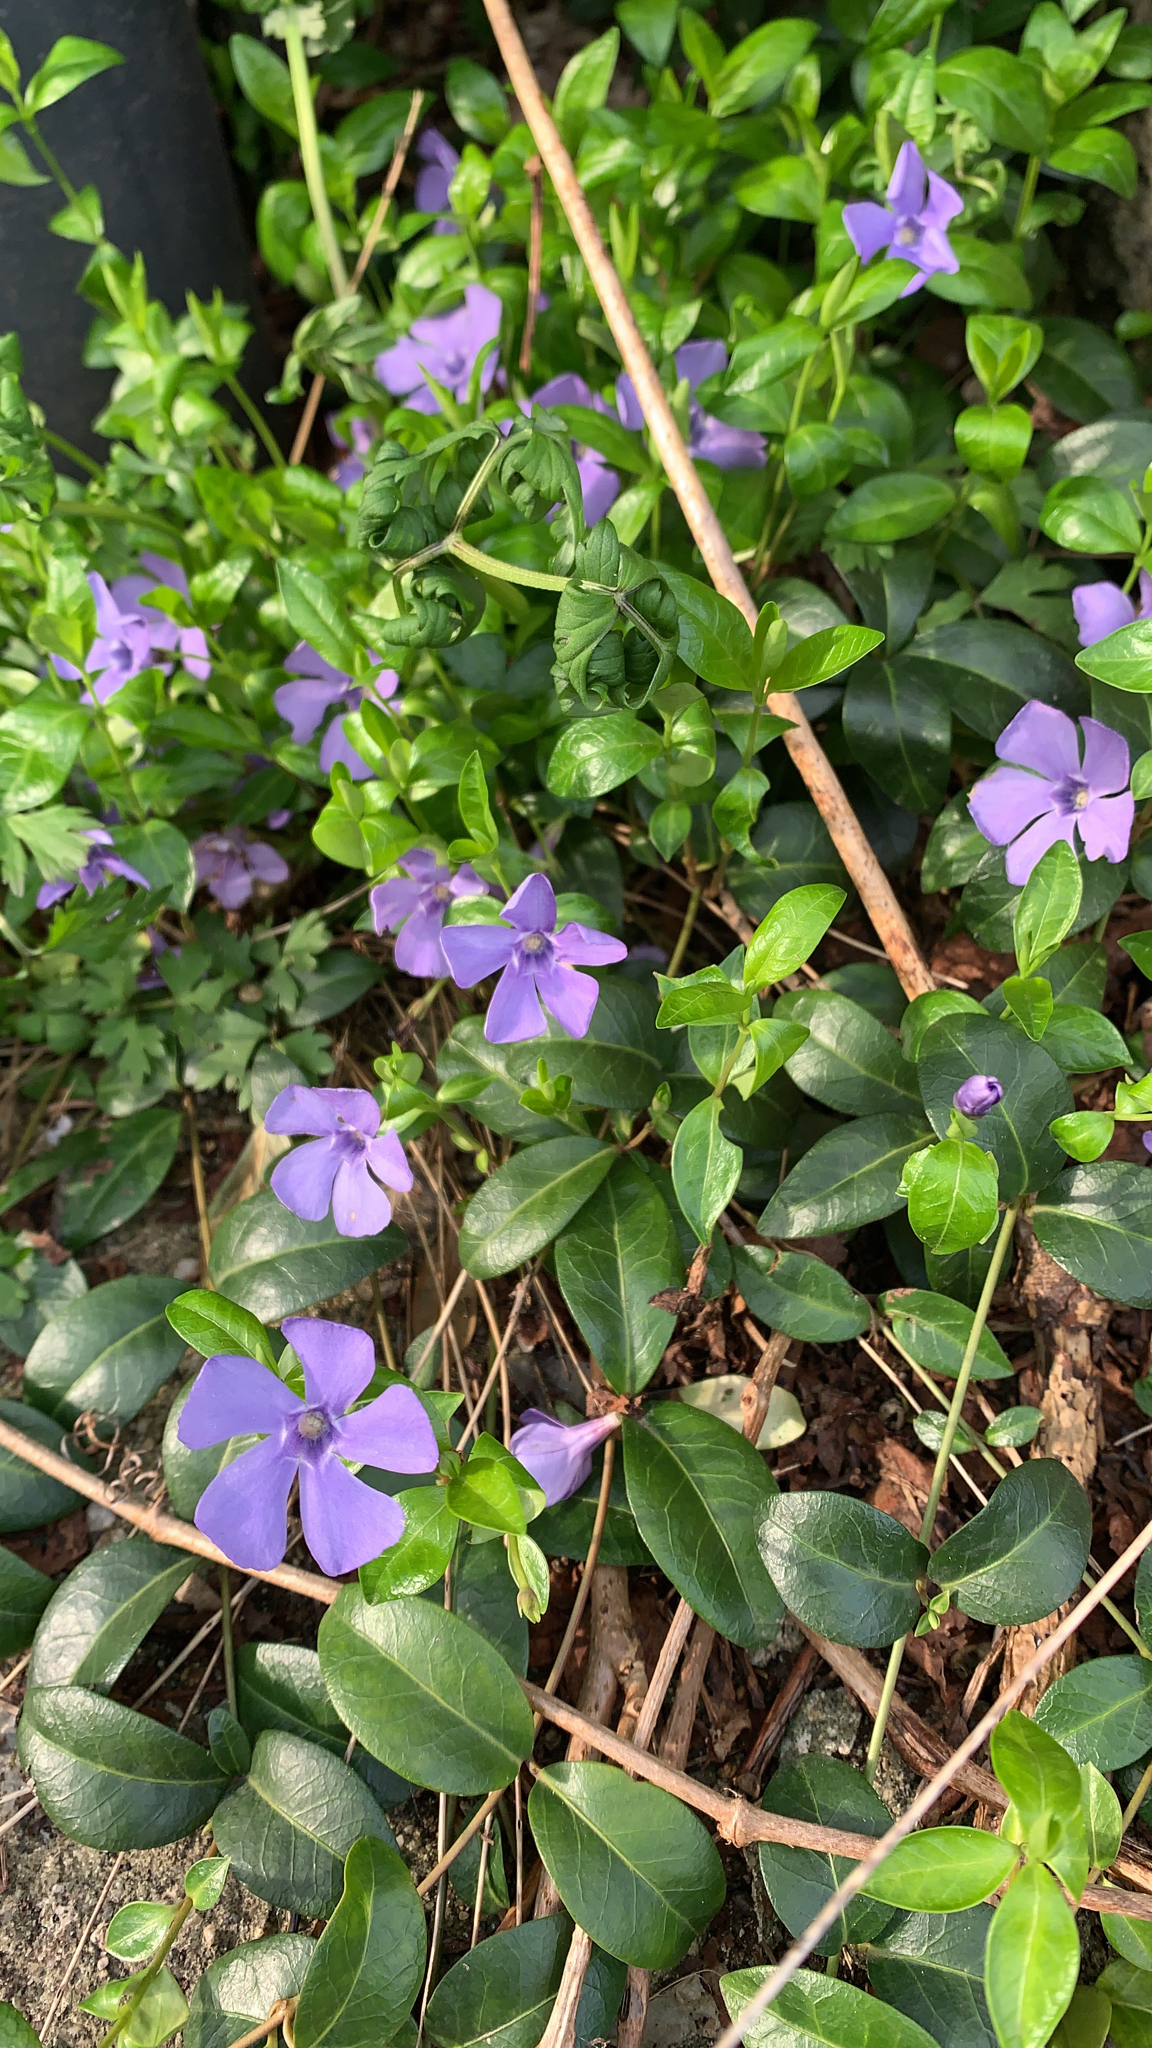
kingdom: Plantae
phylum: Tracheophyta
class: Magnoliopsida
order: Gentianales
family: Apocynaceae
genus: Vinca
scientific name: Vinca minor
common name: Lesser periwinkle
